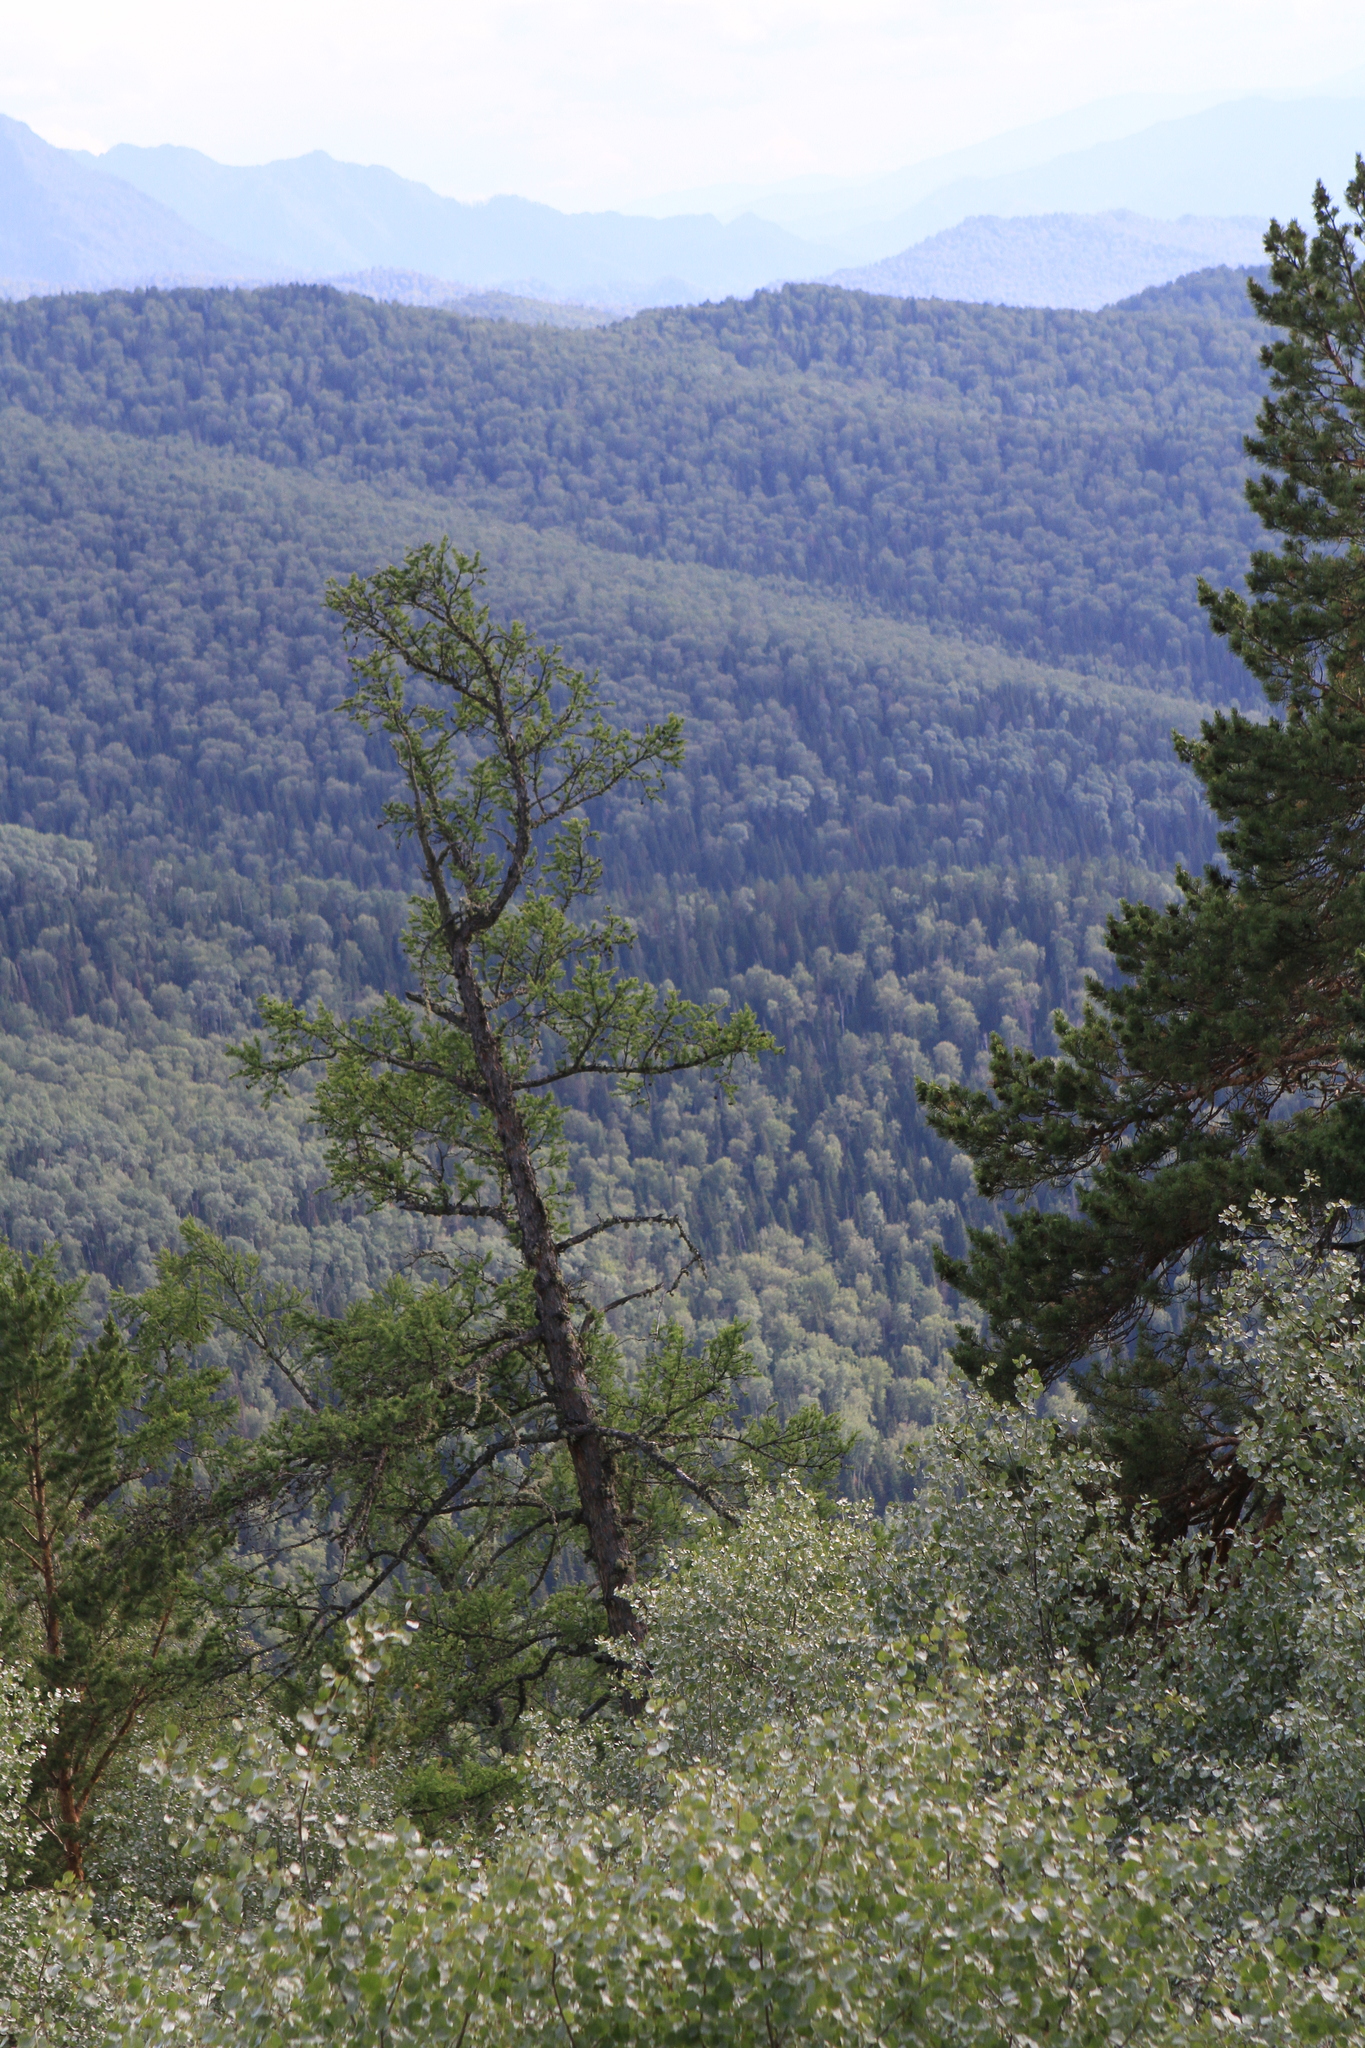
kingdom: Plantae
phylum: Tracheophyta
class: Pinopsida
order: Pinales
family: Pinaceae
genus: Larix
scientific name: Larix sibirica
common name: Siberian larch
